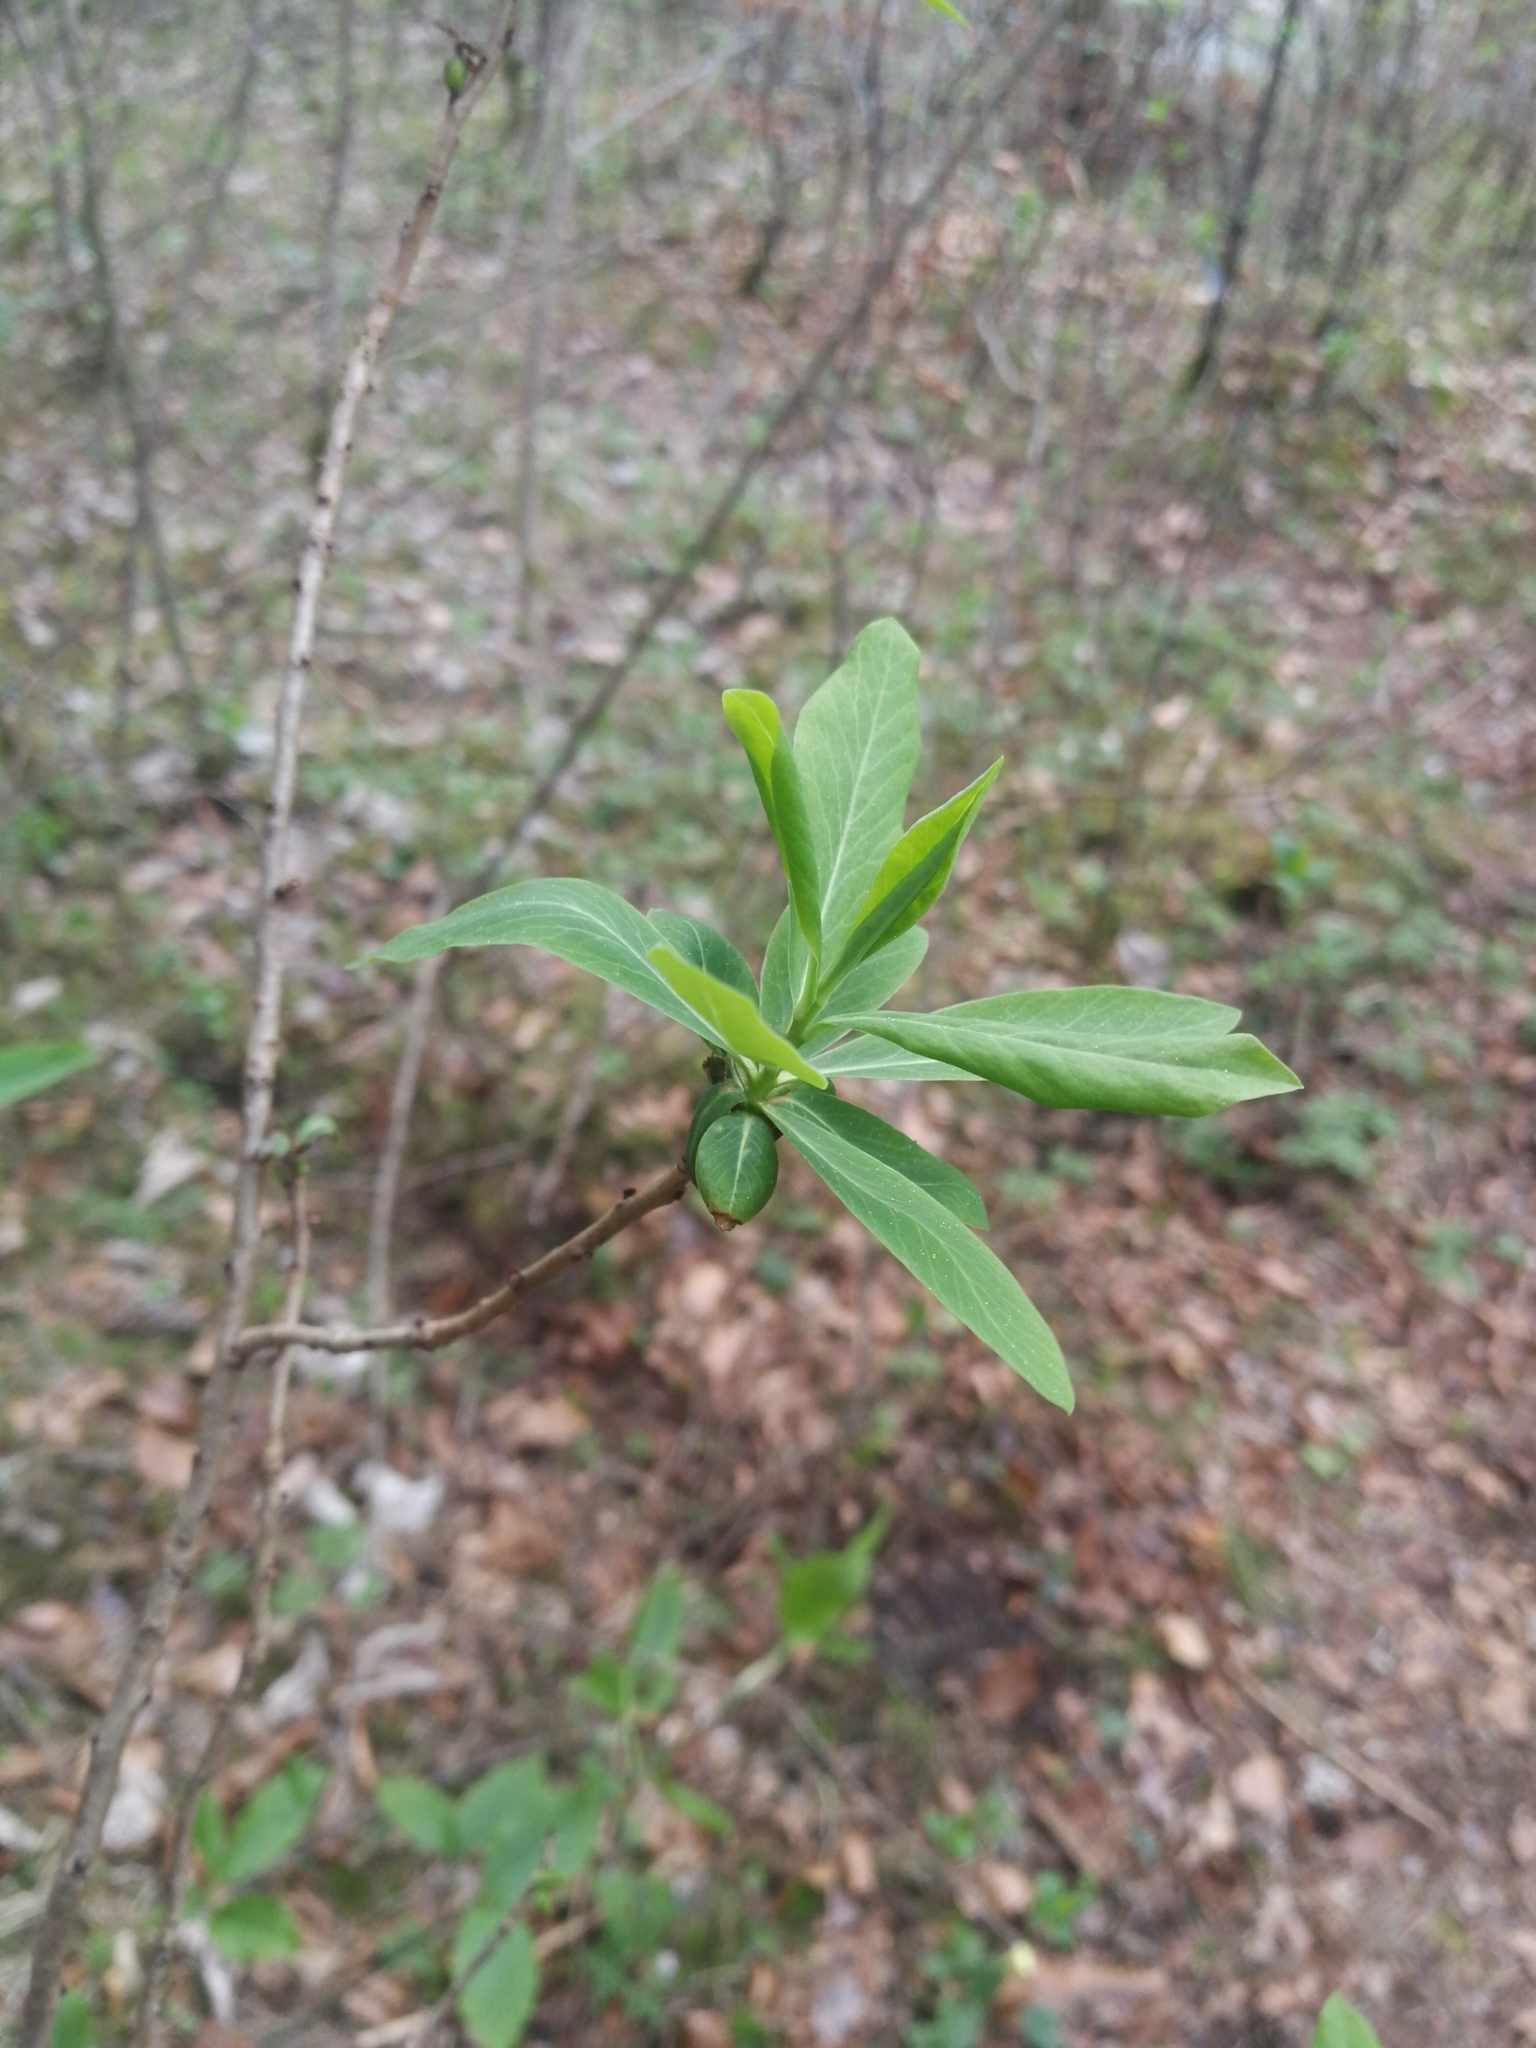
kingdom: Plantae
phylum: Tracheophyta
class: Magnoliopsida
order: Malvales
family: Thymelaeaceae
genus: Daphne
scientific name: Daphne mezereum
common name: Mezereon
